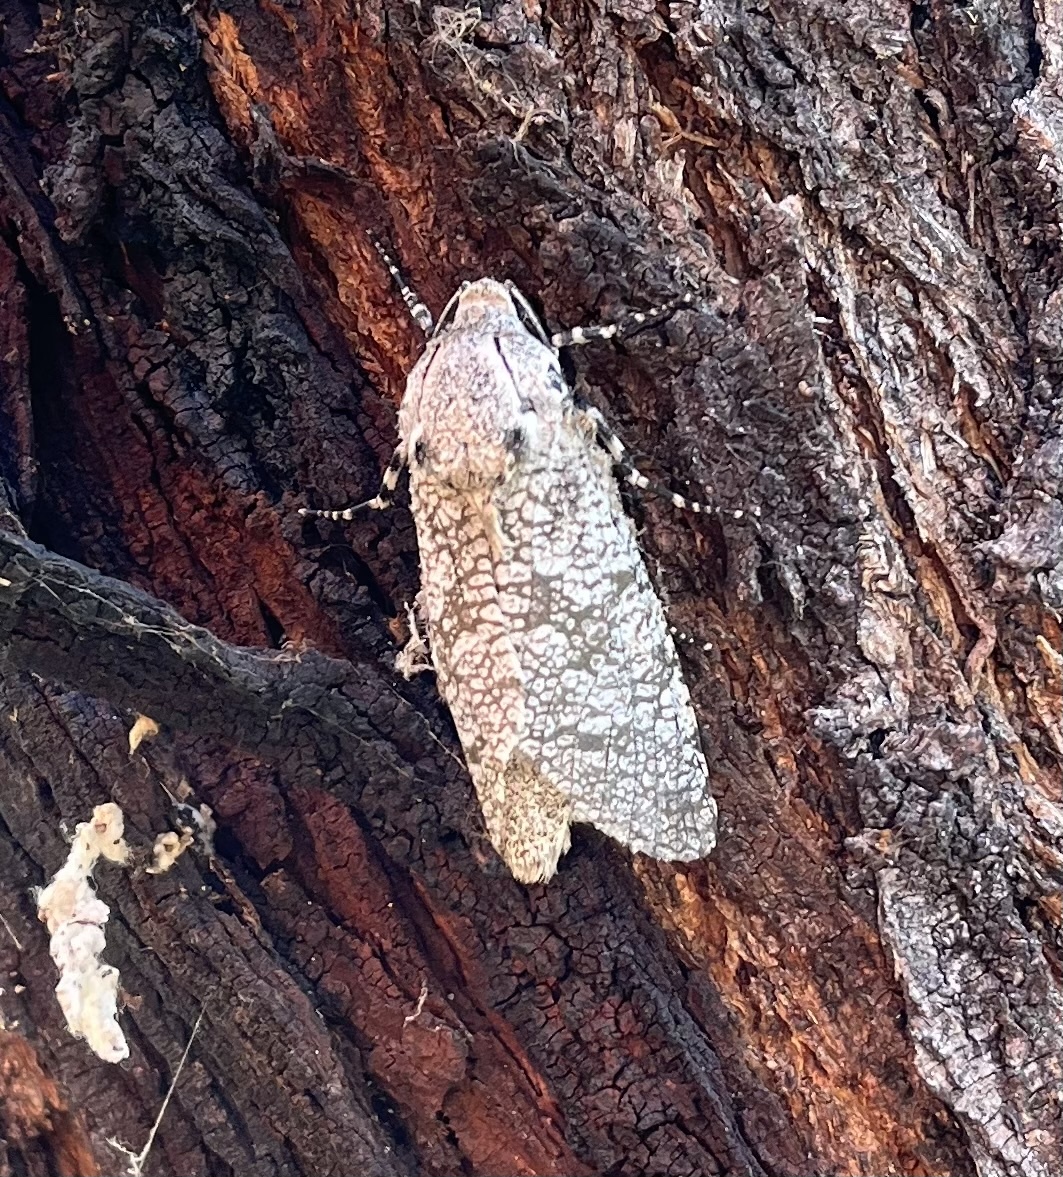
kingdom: Animalia
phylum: Arthropoda
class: Insecta
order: Lepidoptera
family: Cossidae
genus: Prionoxystus
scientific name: Prionoxystus robiniae
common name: Carpenterworm
